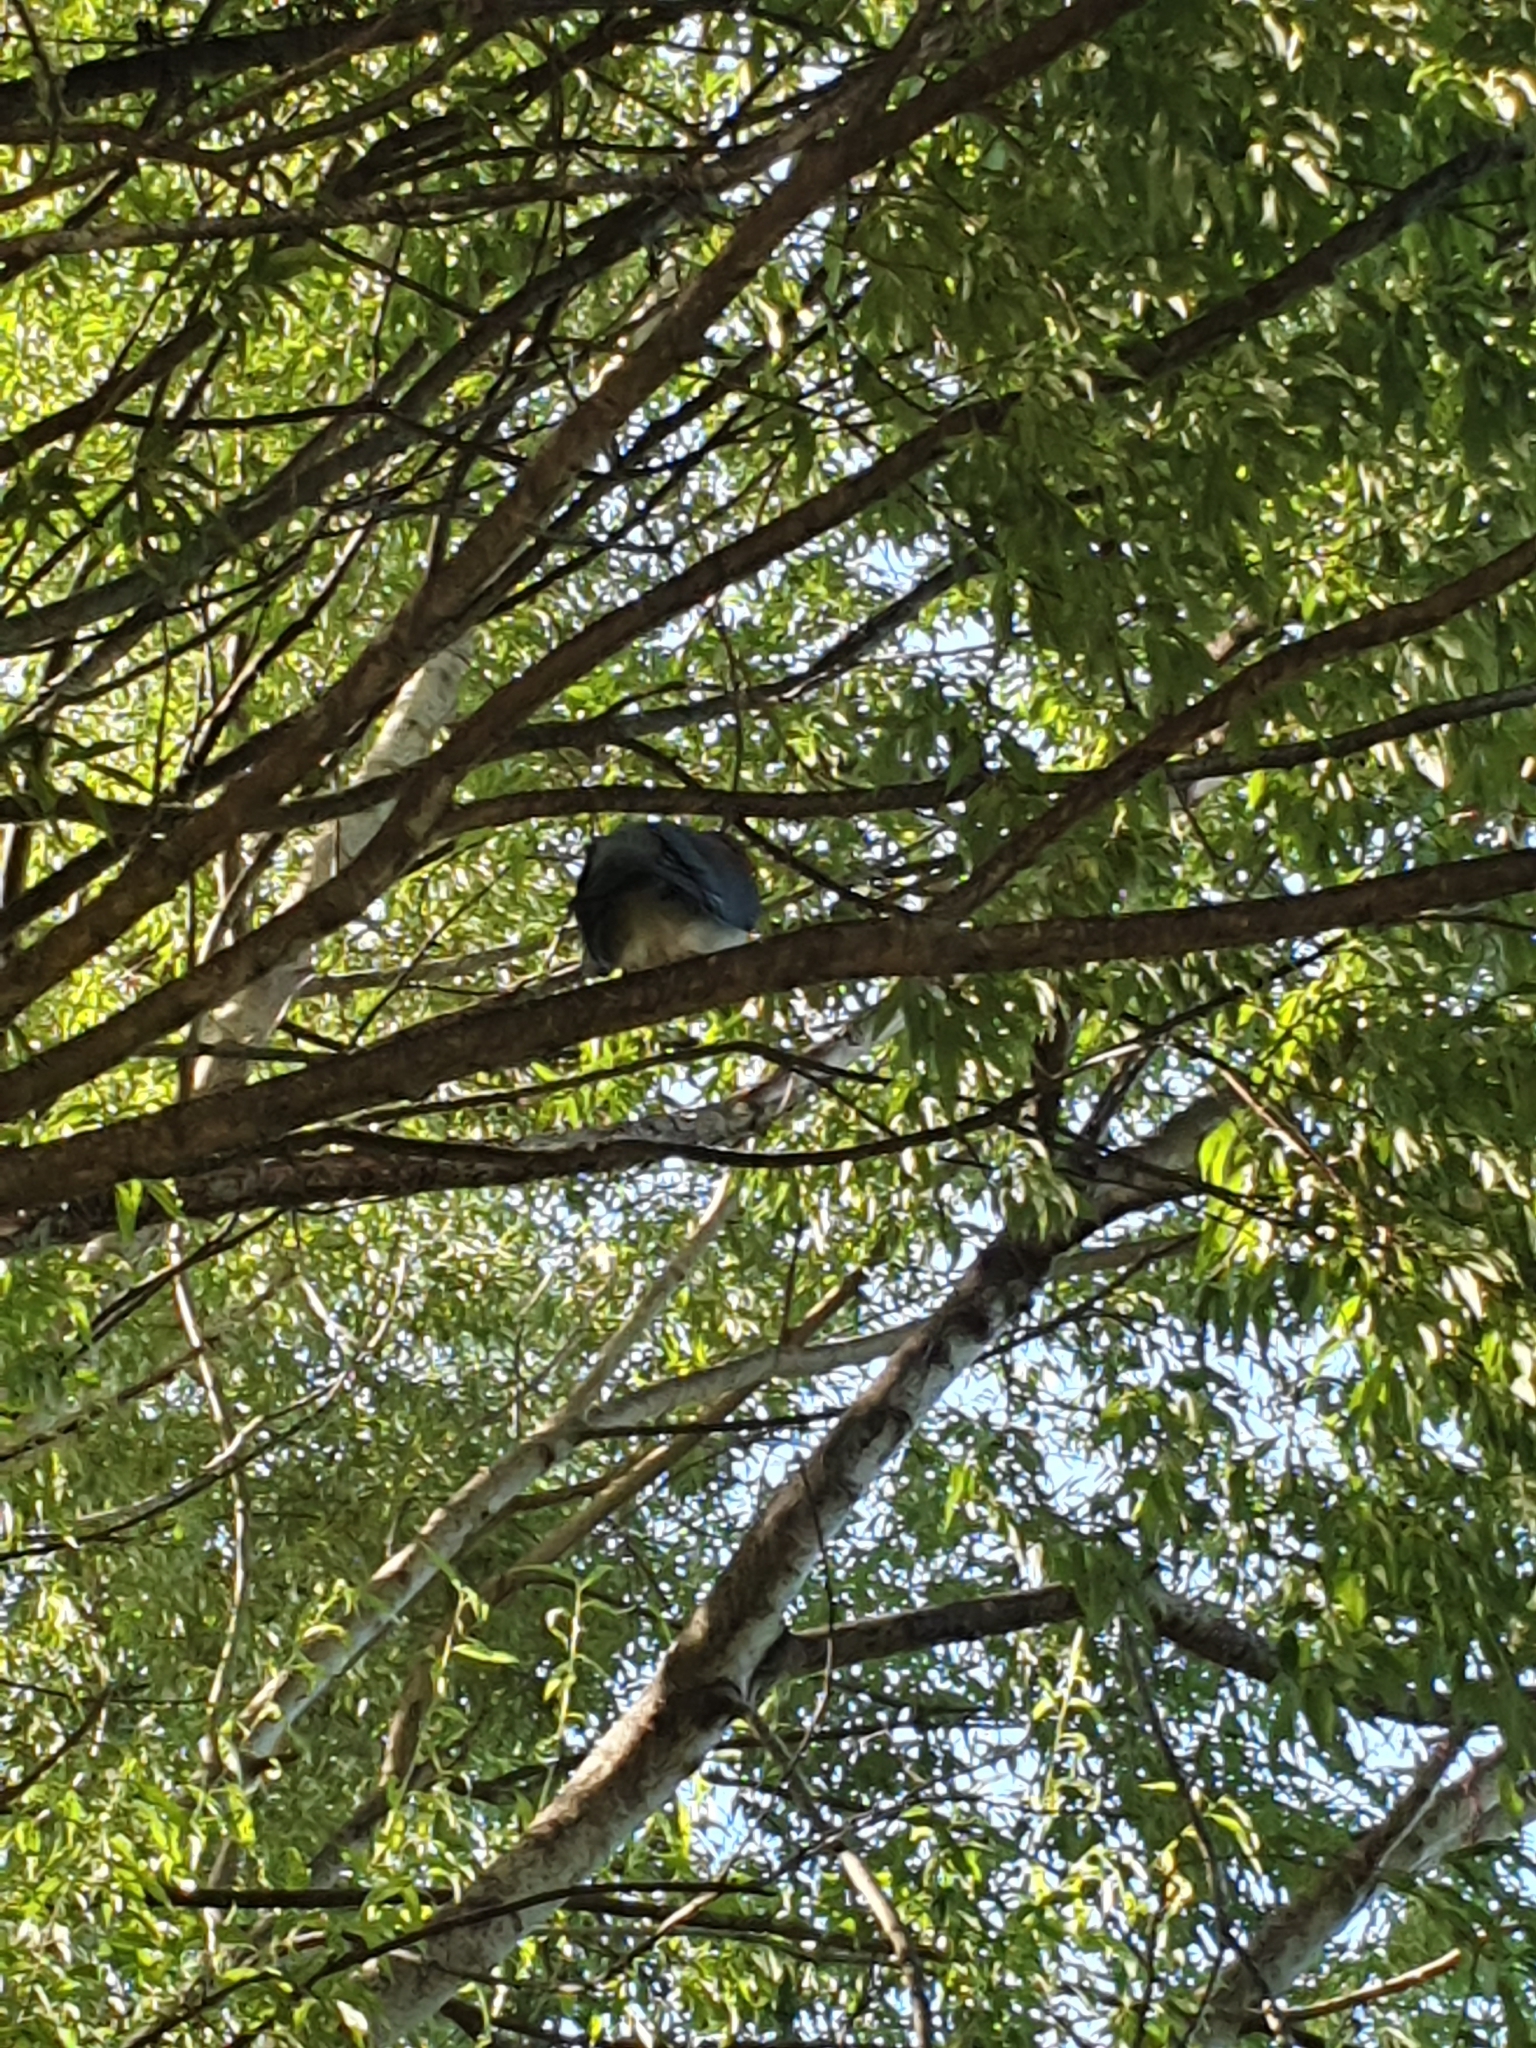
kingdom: Animalia
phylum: Chordata
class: Aves
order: Columbiformes
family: Columbidae
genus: Hemiphaga
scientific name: Hemiphaga novaeseelandiae
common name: New zealand pigeon
